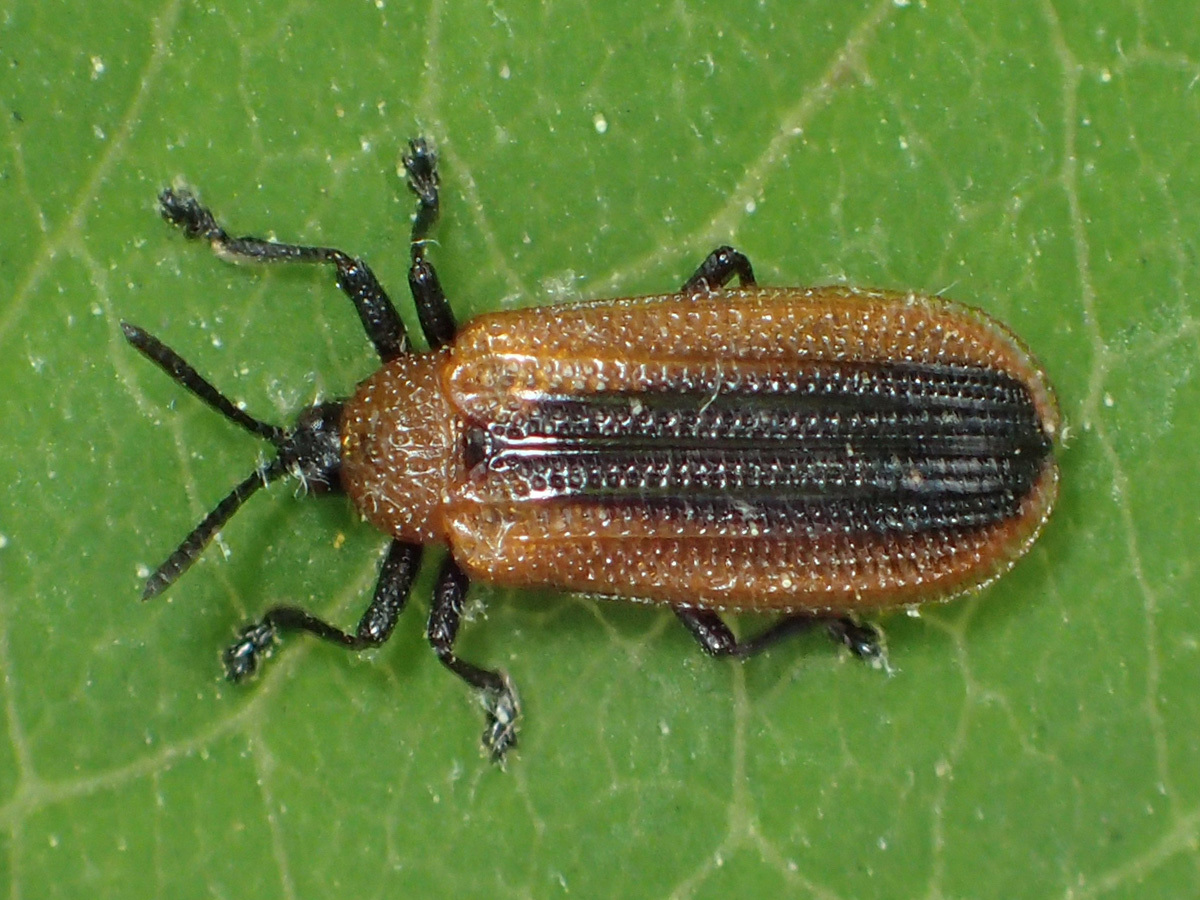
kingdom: Animalia
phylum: Arthropoda
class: Insecta
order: Coleoptera
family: Chrysomelidae
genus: Odontota
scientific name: Odontota dorsalis
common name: Locust leaf-miner beetle
